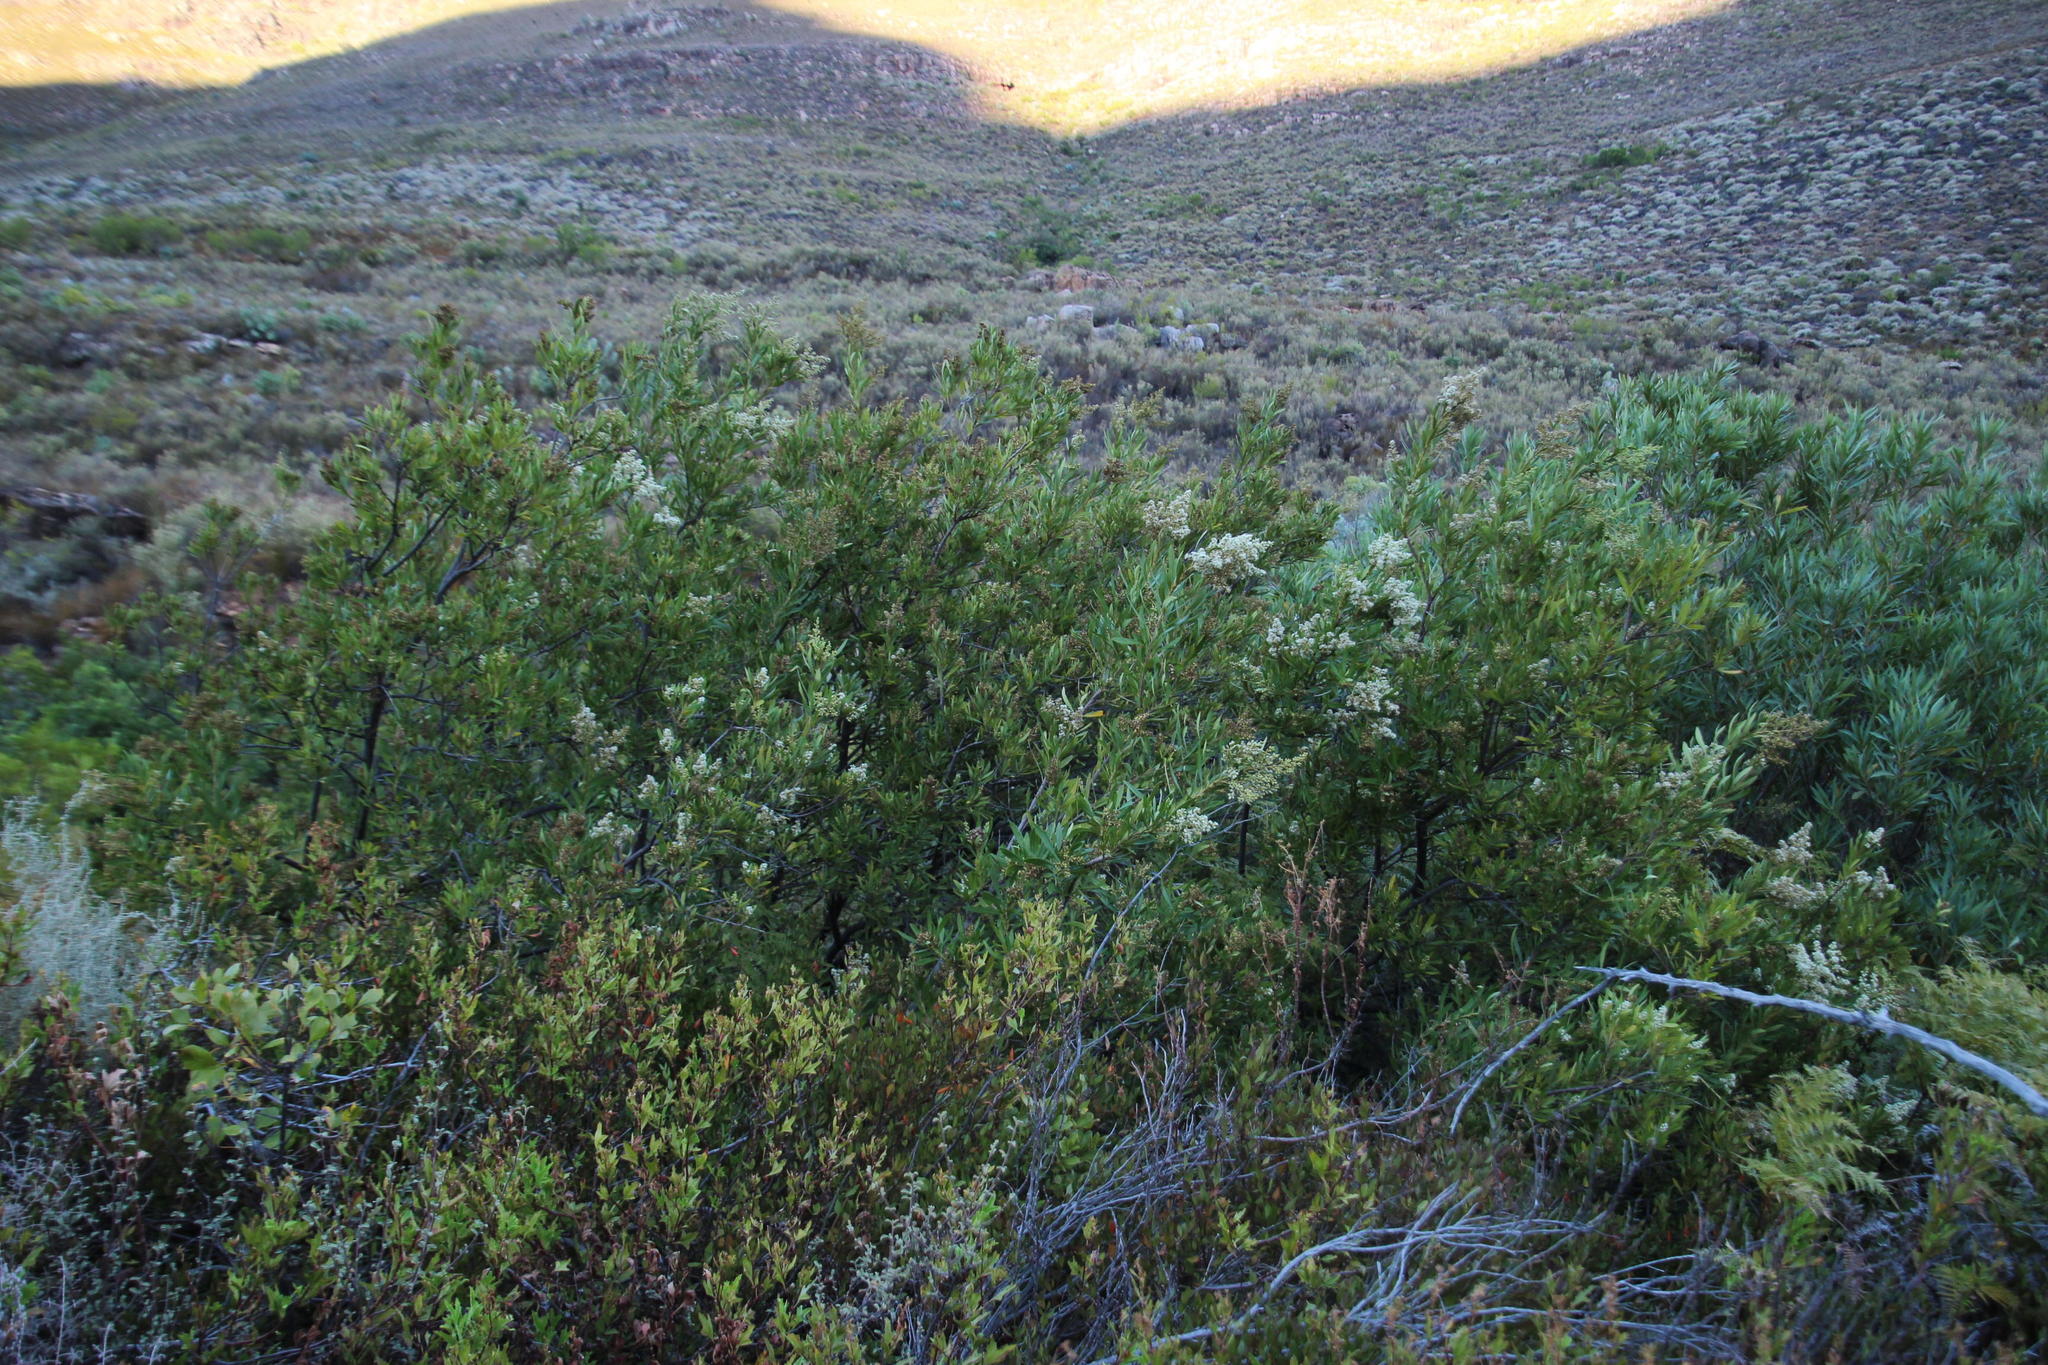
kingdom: Plantae
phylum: Tracheophyta
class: Magnoliopsida
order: Asterales
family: Asteraceae
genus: Brachylaena
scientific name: Brachylaena neriifolia
